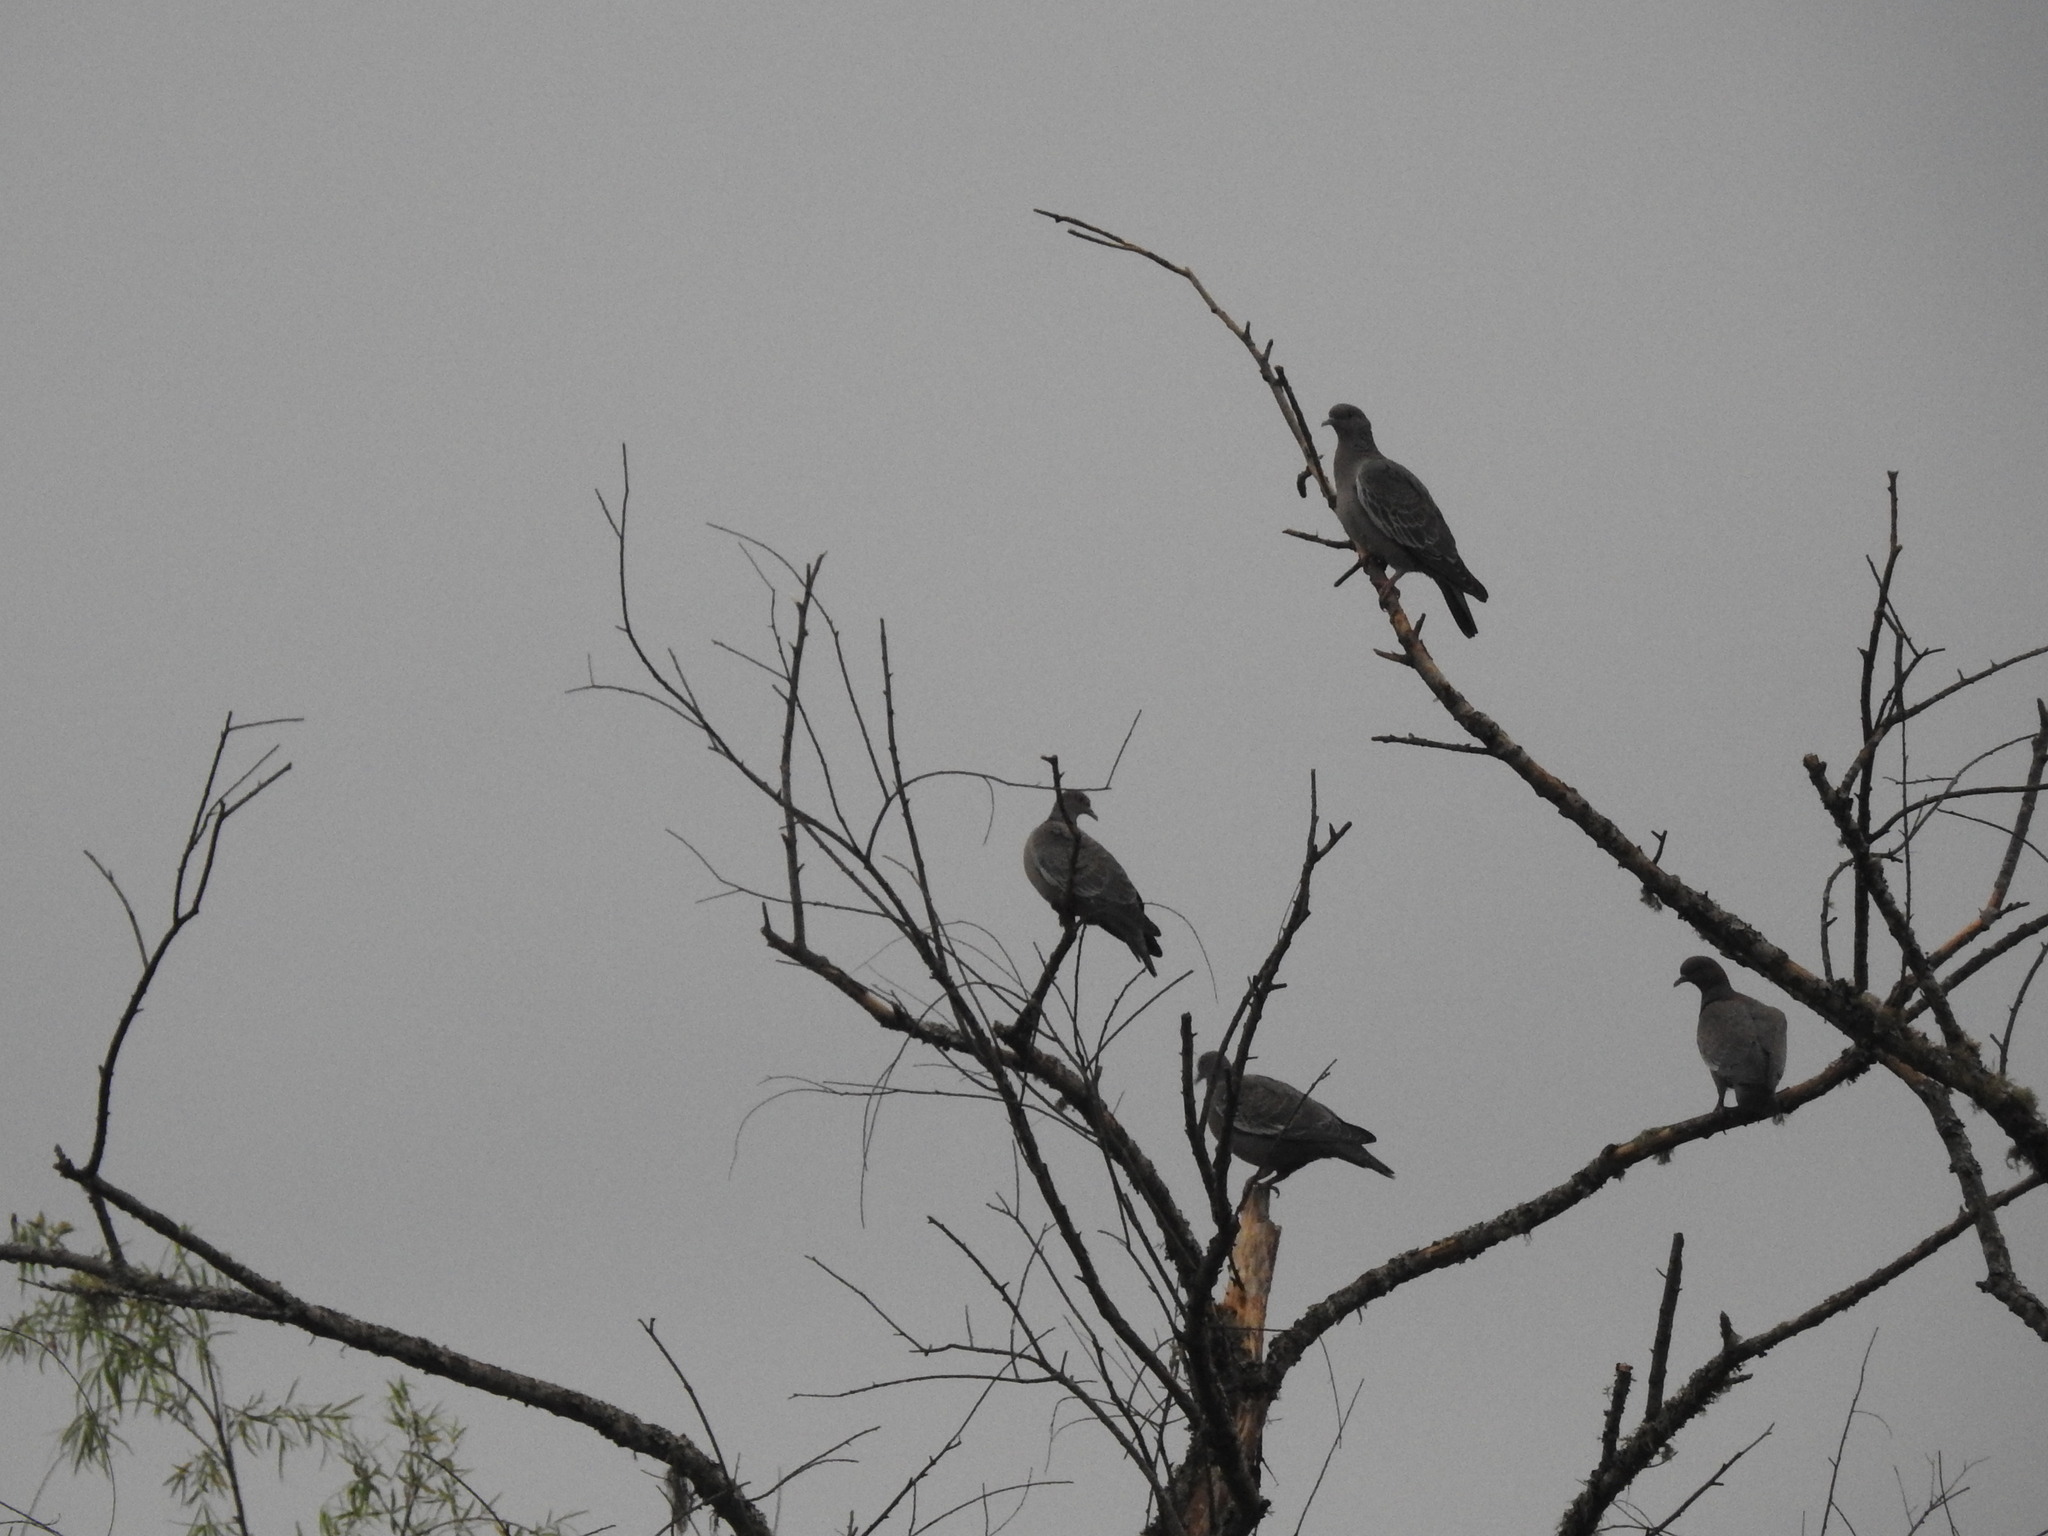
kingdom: Animalia
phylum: Chordata
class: Aves
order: Columbiformes
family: Columbidae
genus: Patagioenas
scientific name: Patagioenas picazuro
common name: Picazuro pigeon
